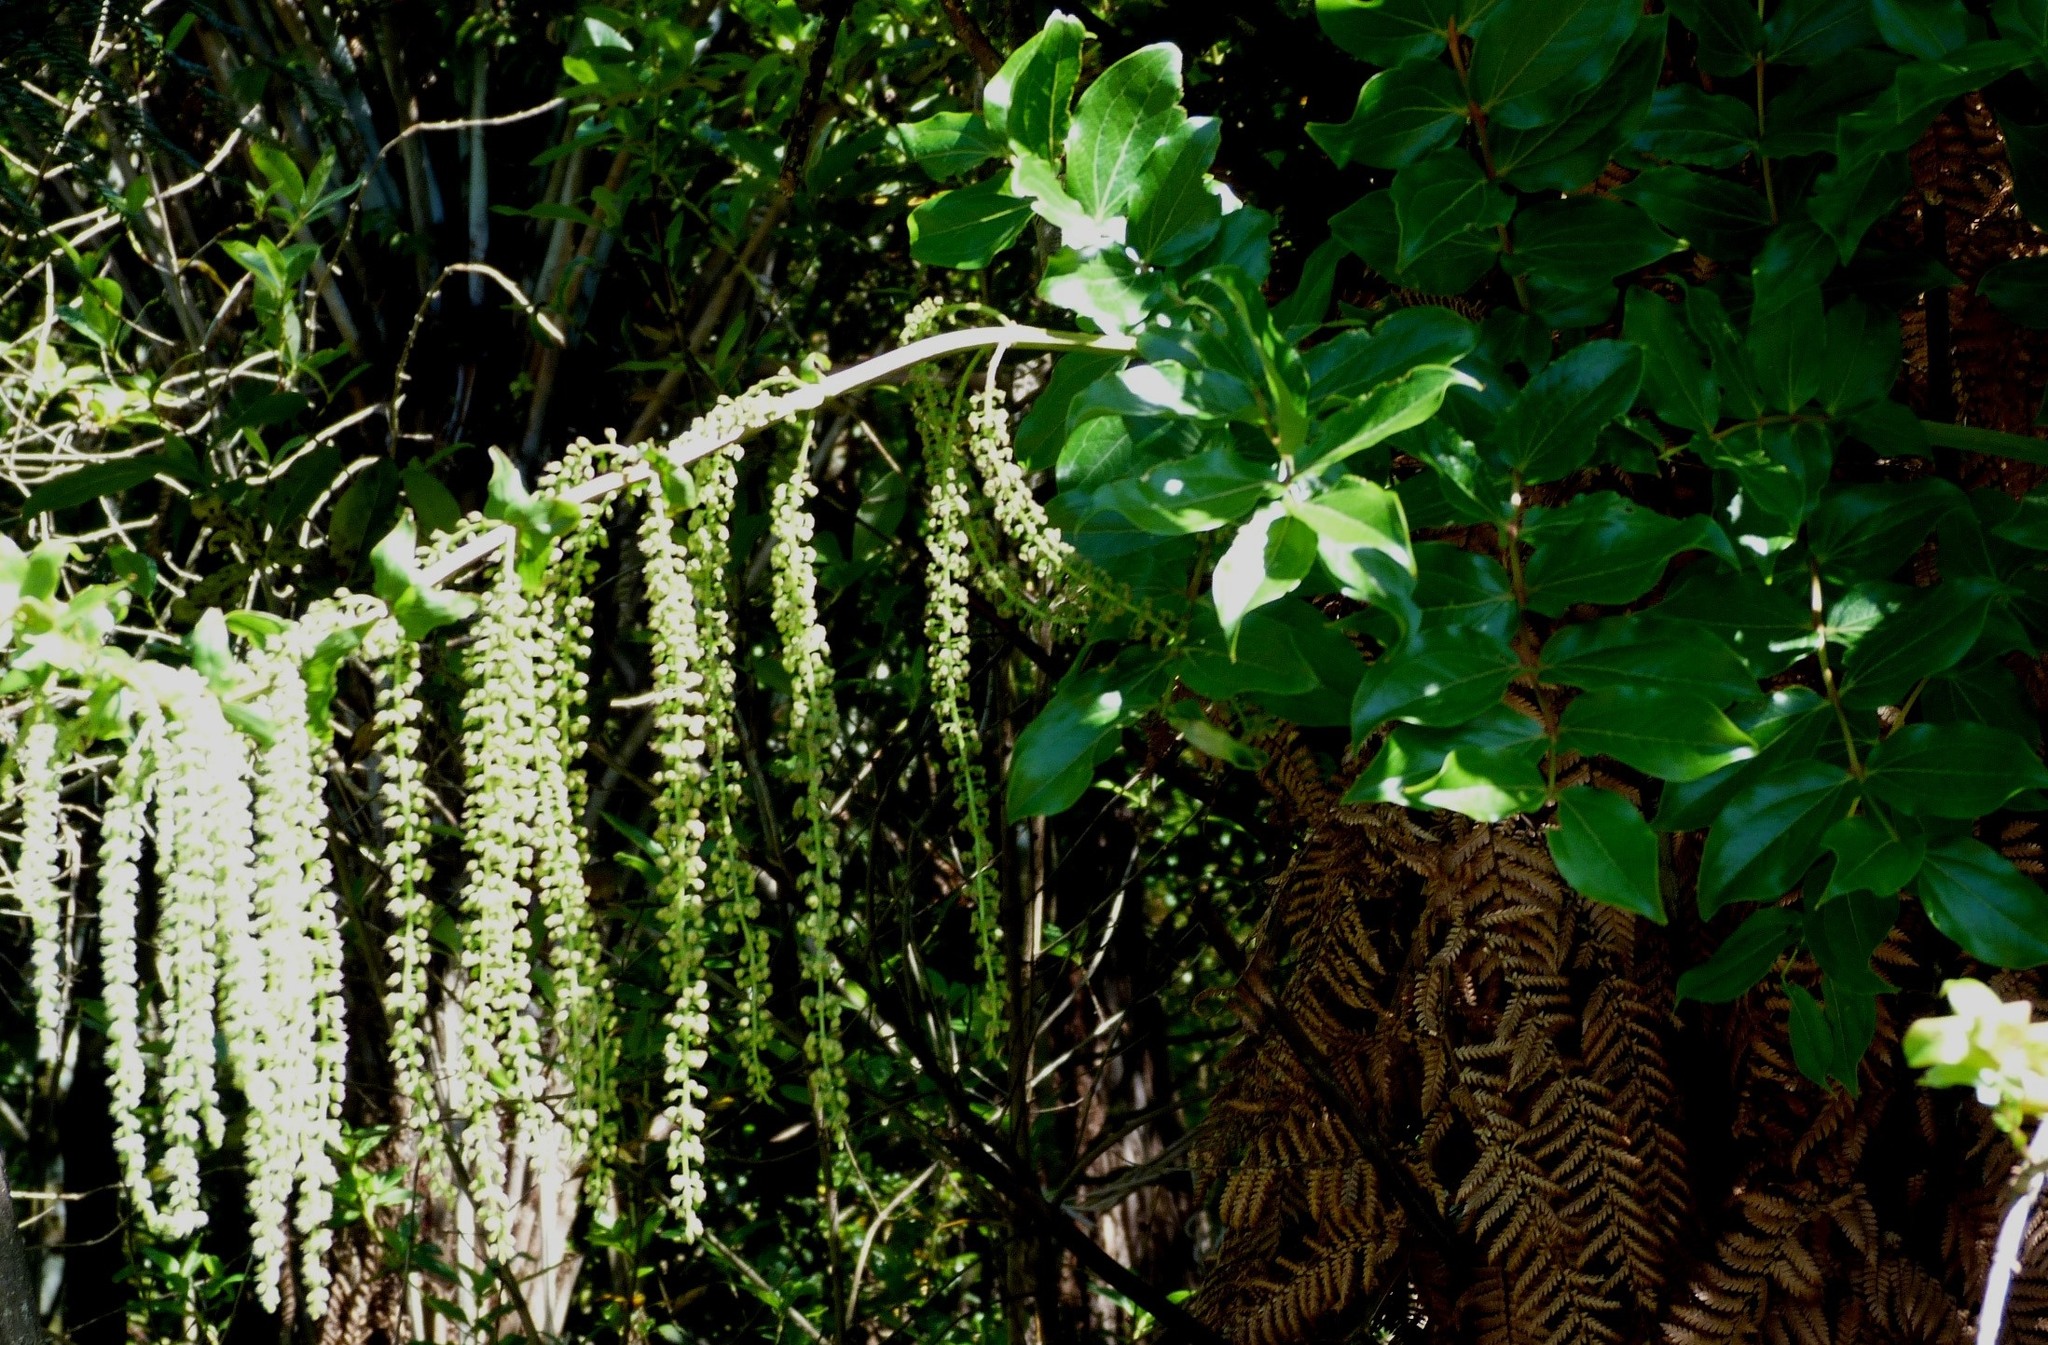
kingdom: Plantae
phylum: Tracheophyta
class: Magnoliopsida
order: Cucurbitales
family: Coriariaceae
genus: Coriaria
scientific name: Coriaria arborea
